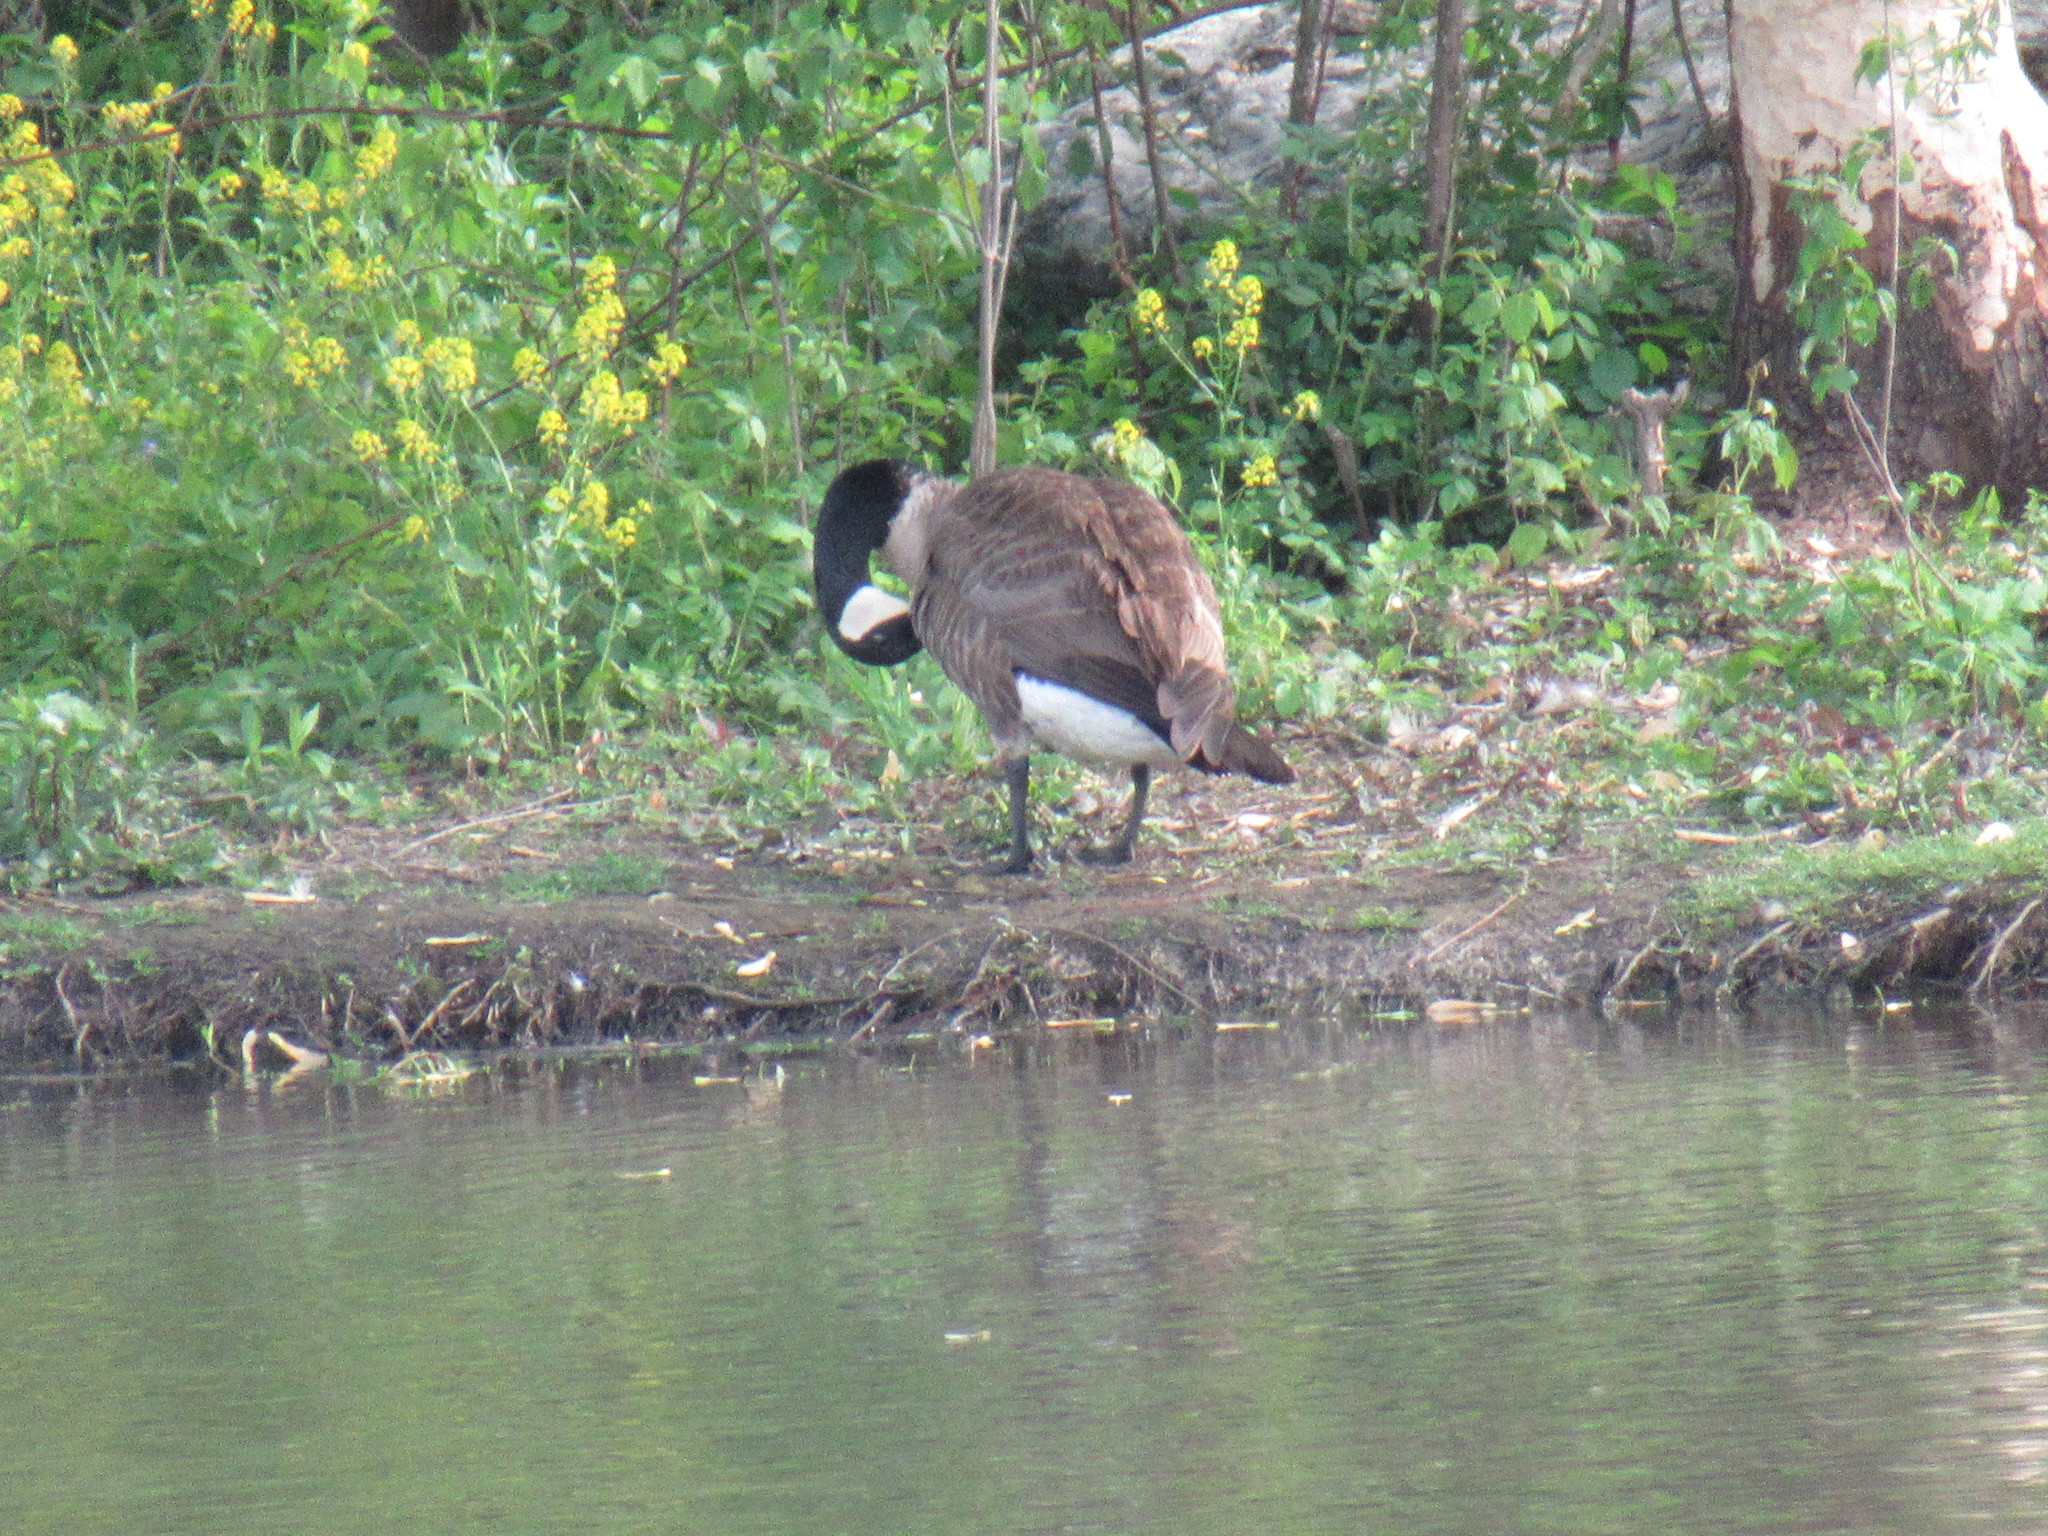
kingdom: Animalia
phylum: Chordata
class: Aves
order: Anseriformes
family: Anatidae
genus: Branta
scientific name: Branta canadensis
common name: Canada goose
